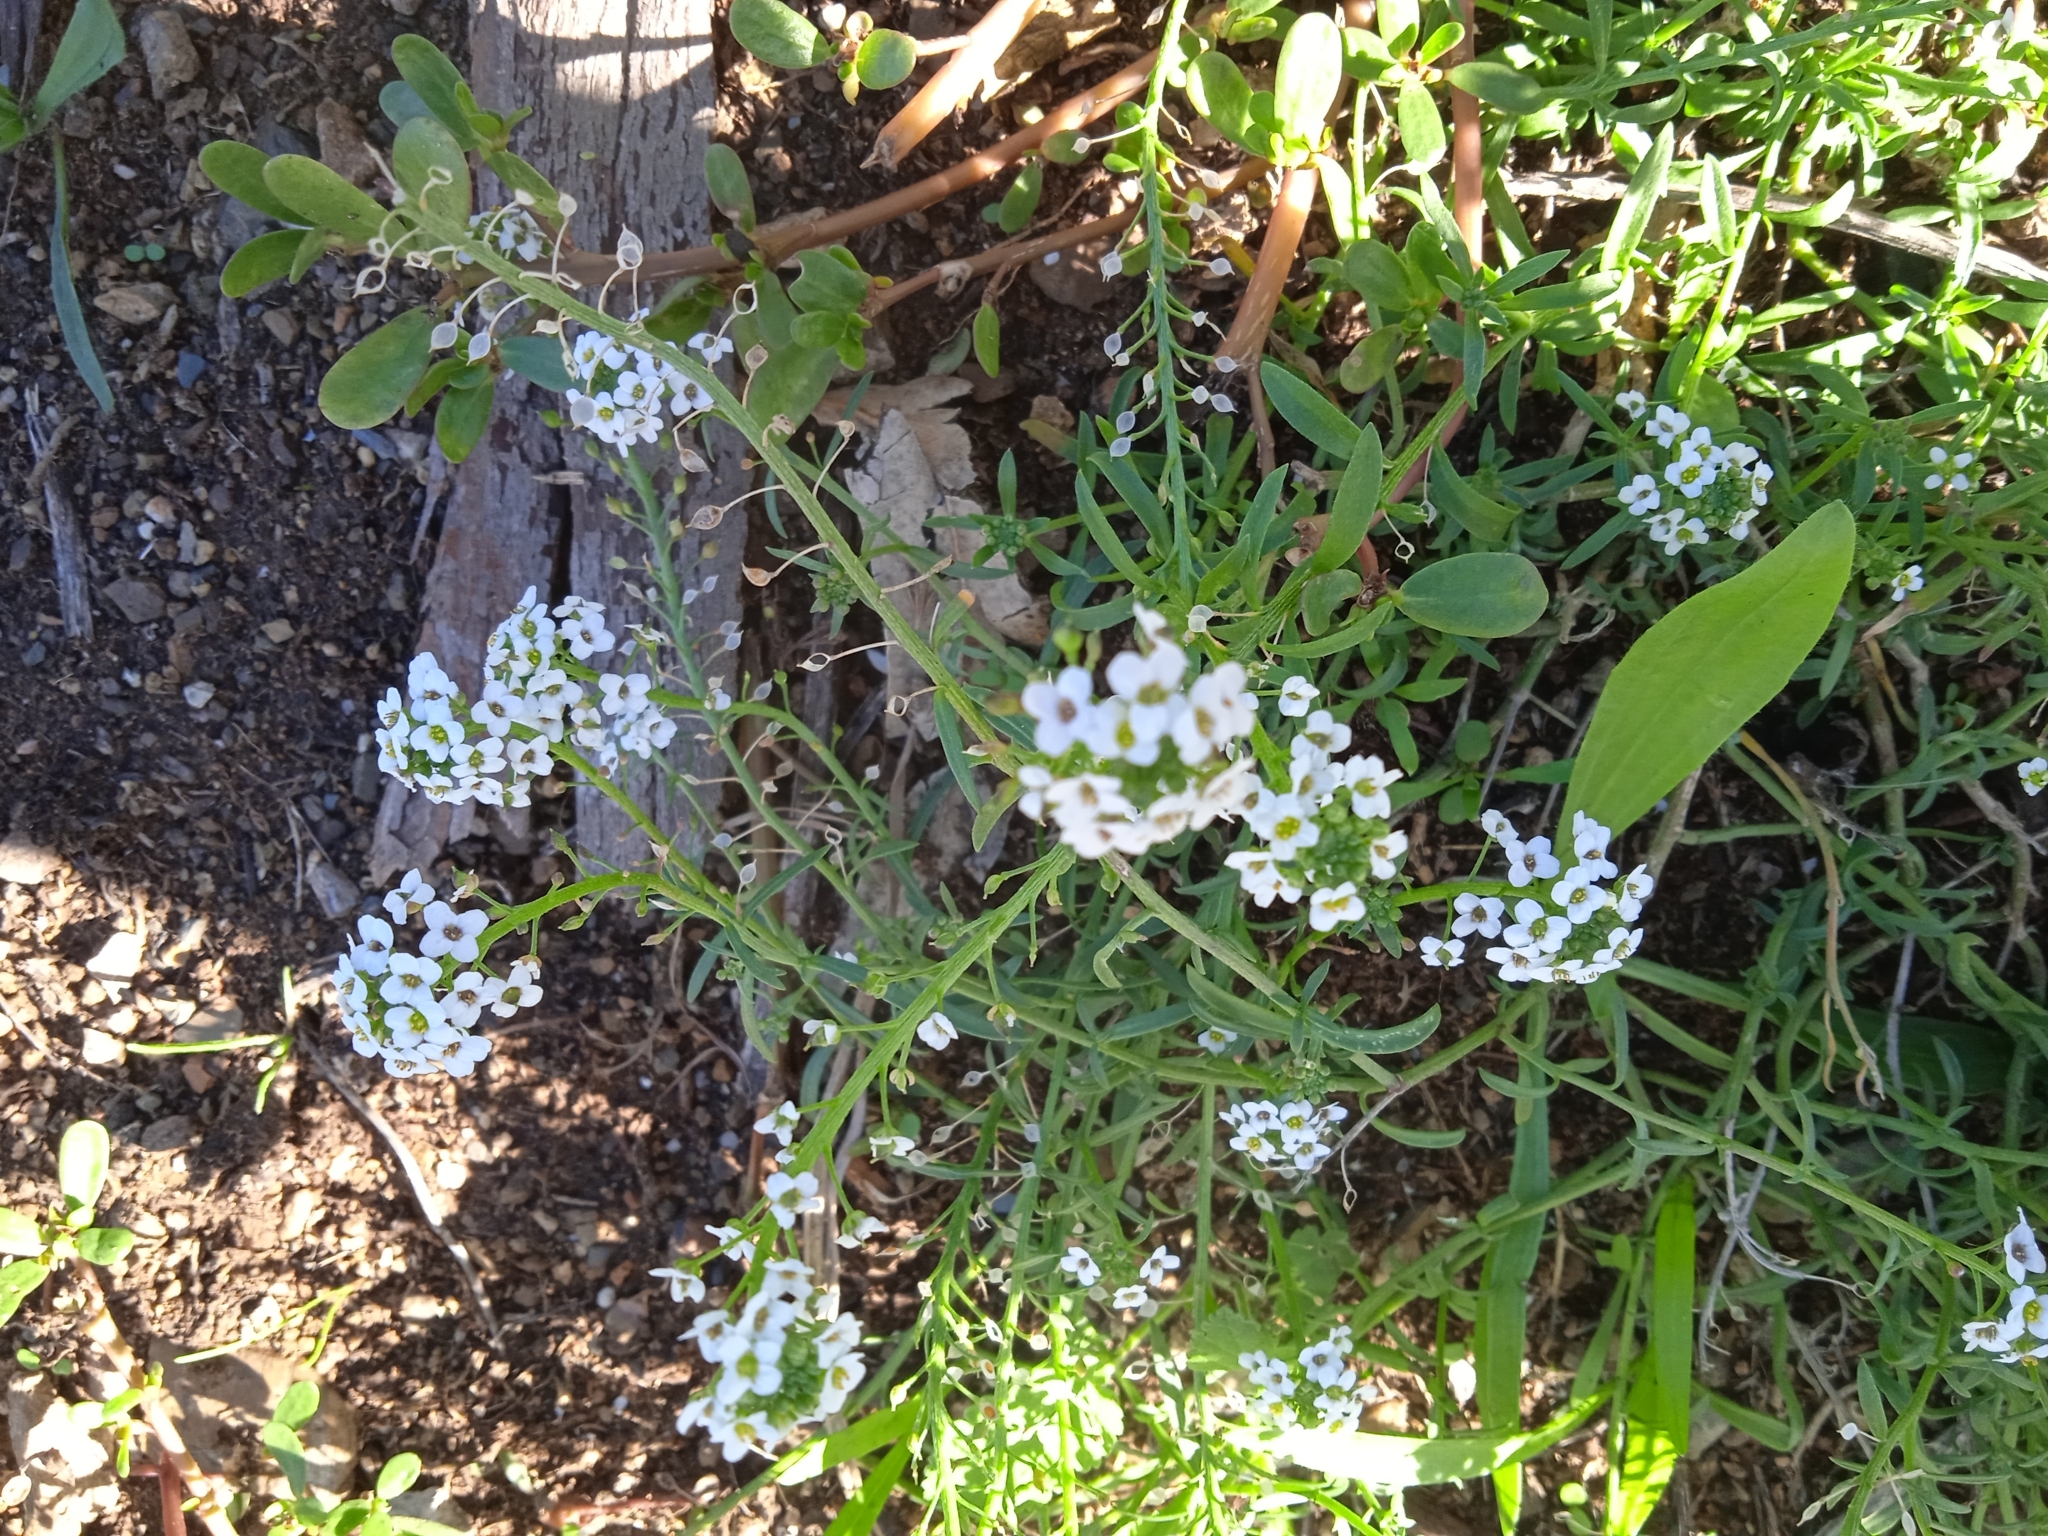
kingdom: Plantae
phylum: Tracheophyta
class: Magnoliopsida
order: Brassicales
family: Brassicaceae
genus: Lobularia
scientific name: Lobularia maritima
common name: Sweet alison
